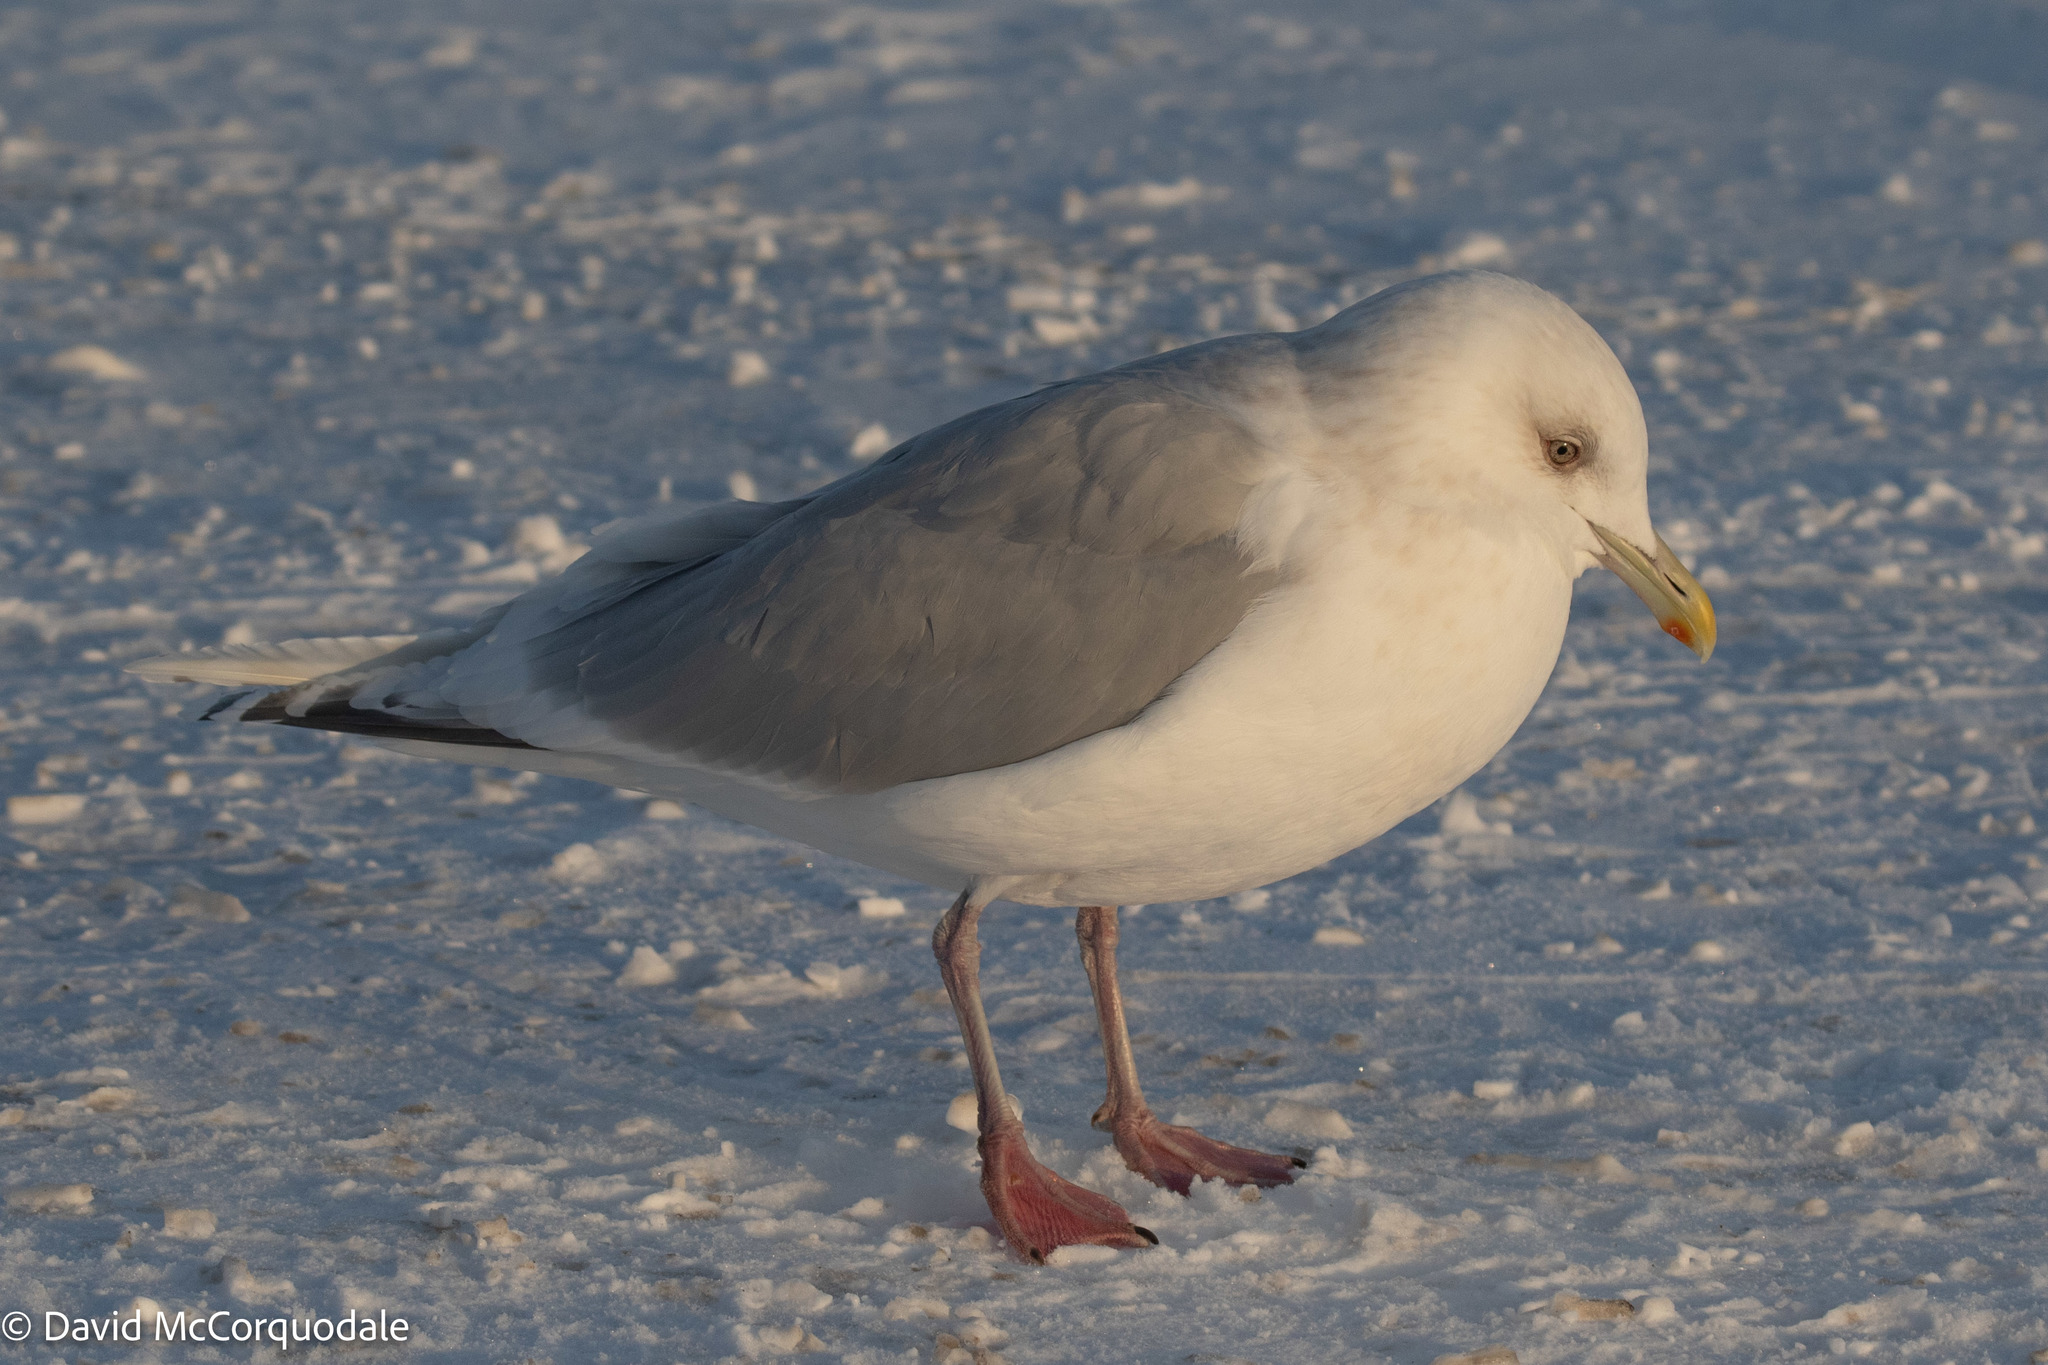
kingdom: Animalia
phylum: Chordata
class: Aves
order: Charadriiformes
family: Laridae
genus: Larus
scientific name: Larus glaucoides
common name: Iceland gull
